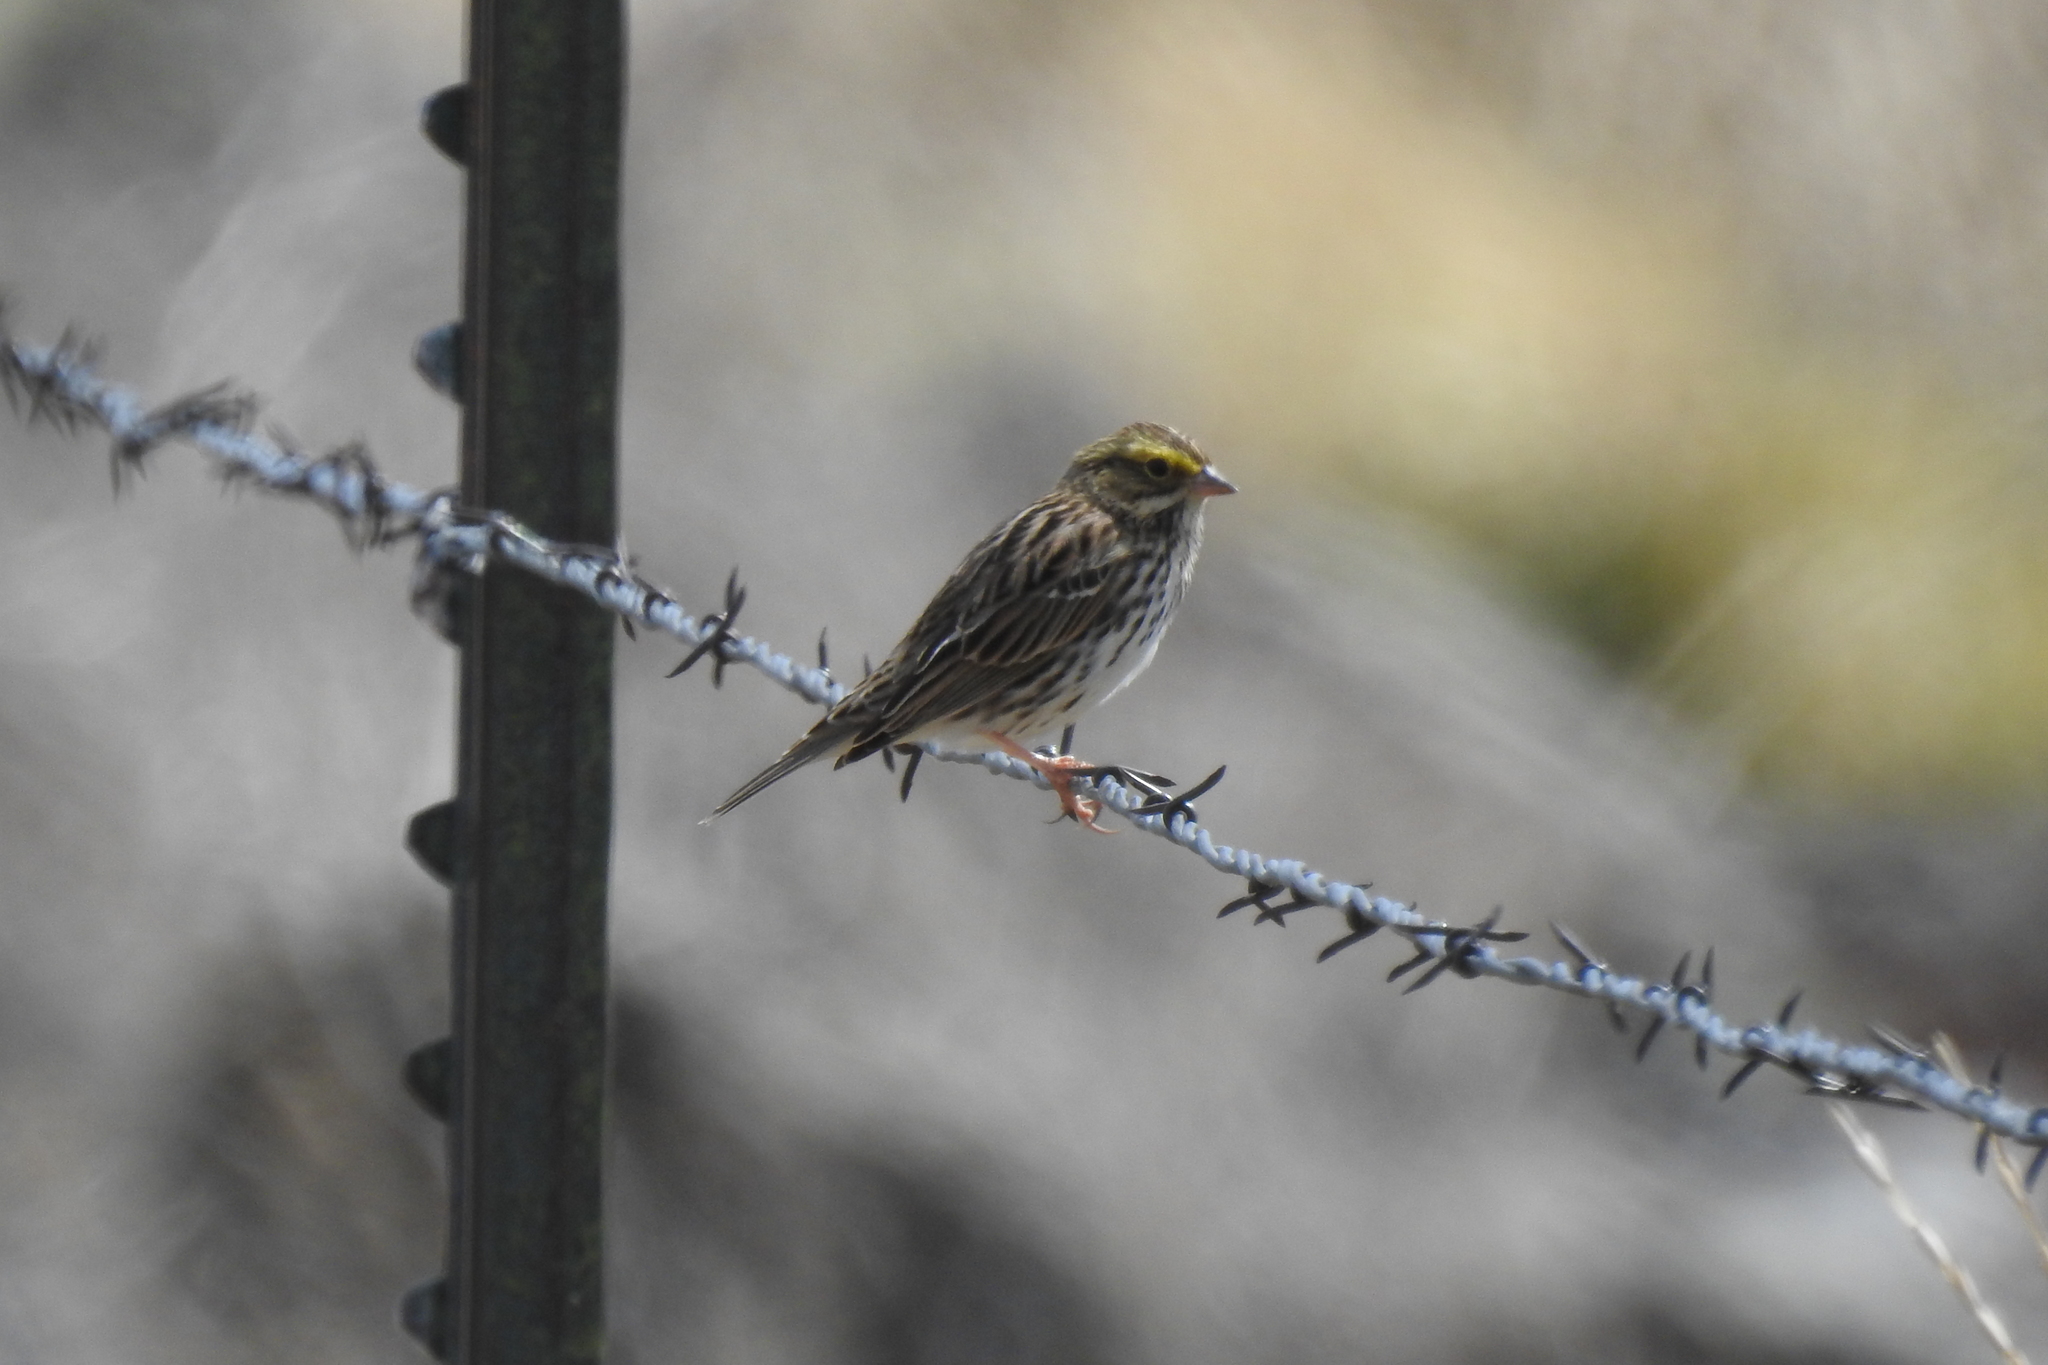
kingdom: Animalia
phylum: Chordata
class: Aves
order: Passeriformes
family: Passerellidae
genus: Passerculus
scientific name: Passerculus sandwichensis
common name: Savannah sparrow
